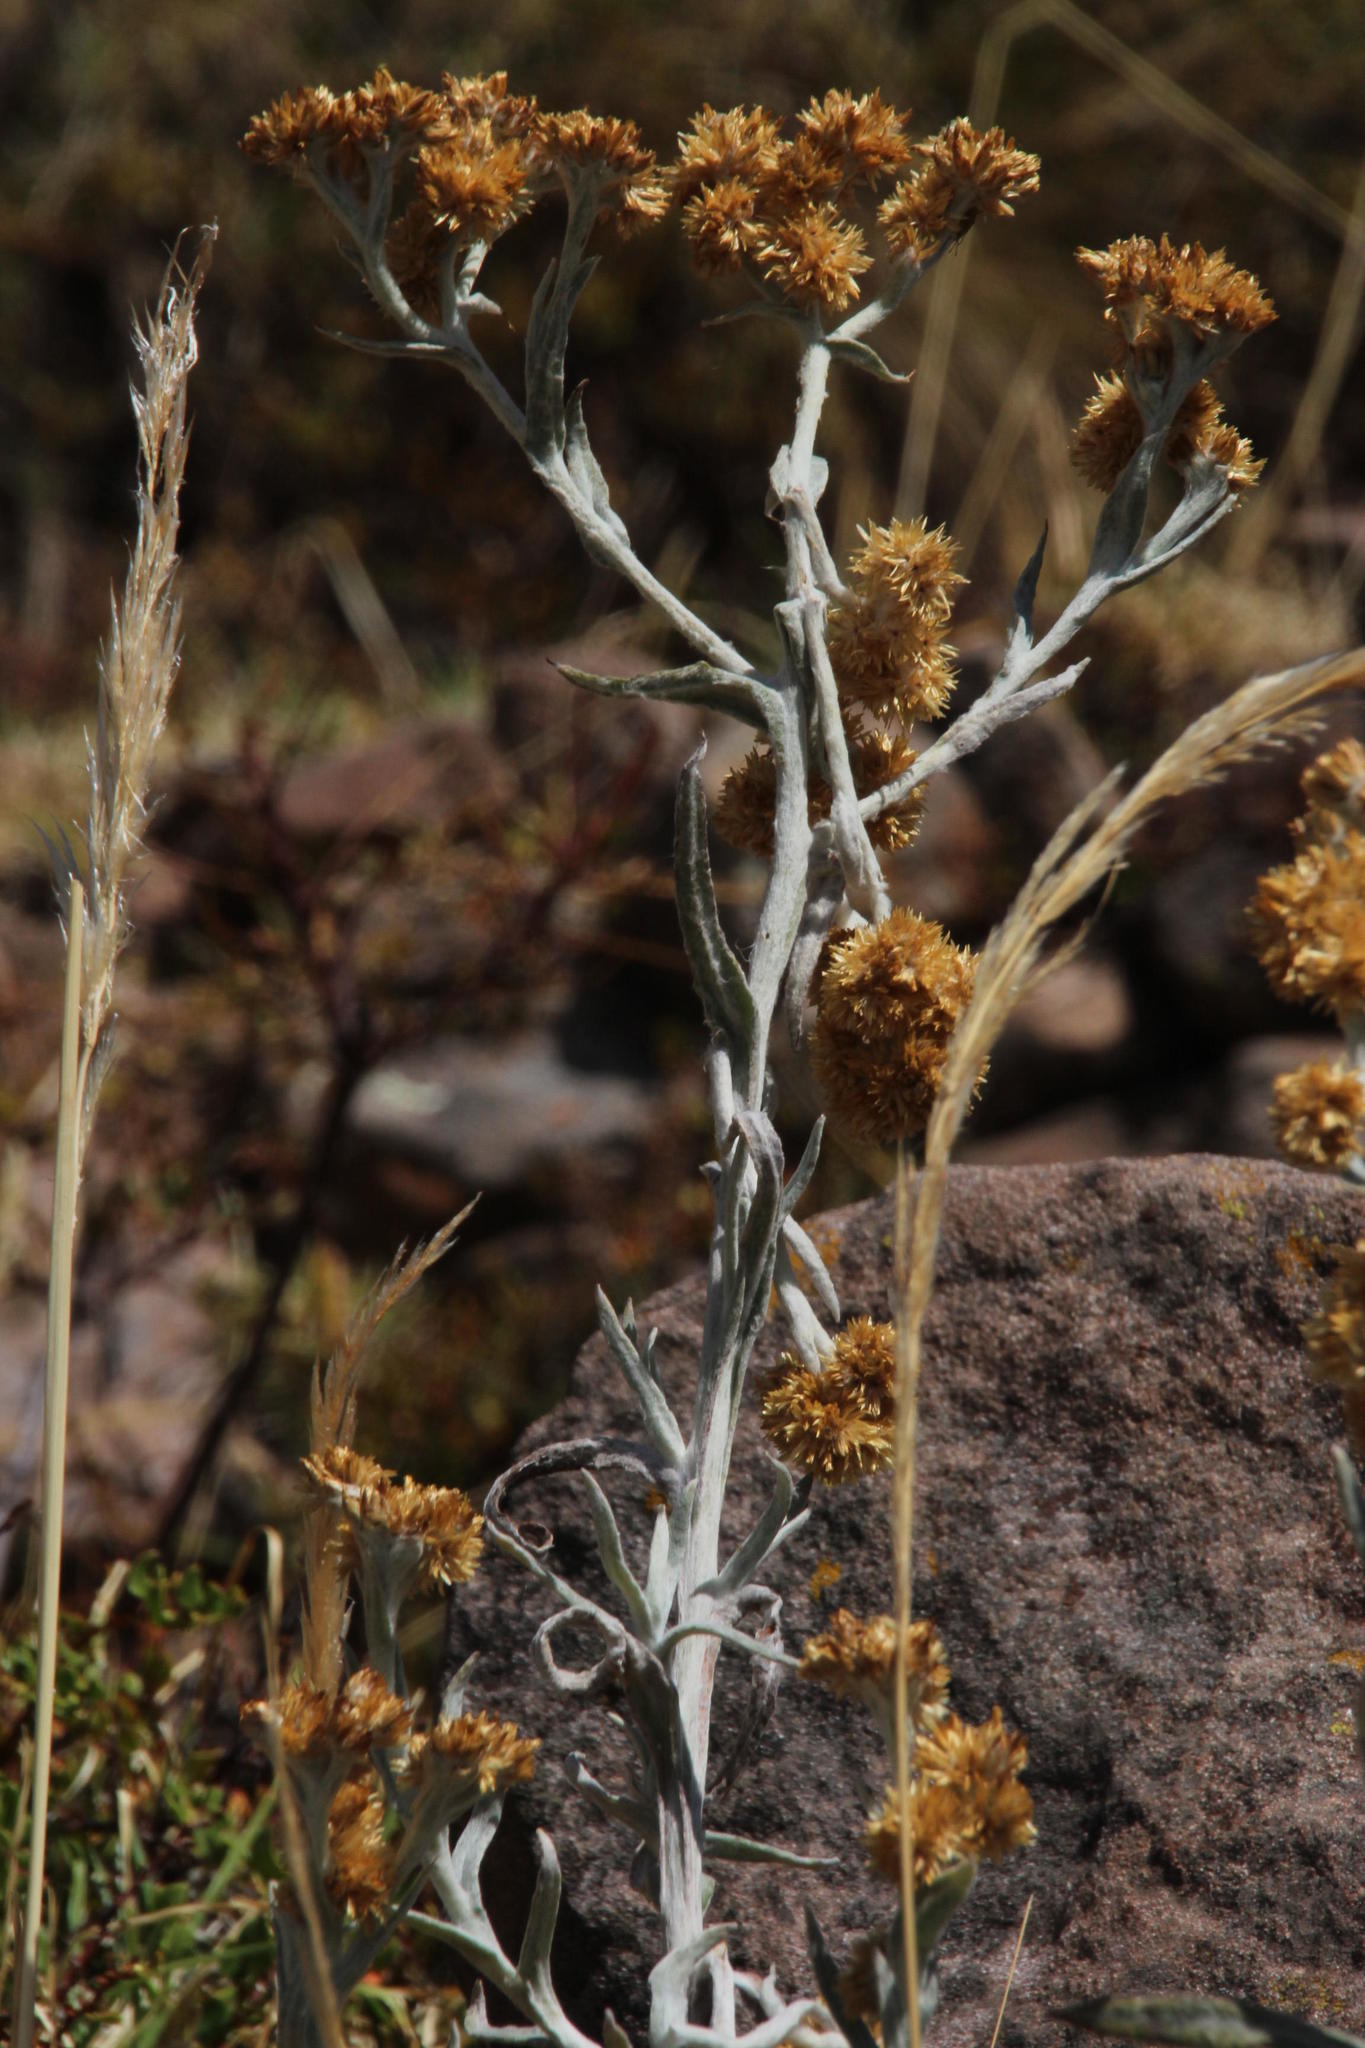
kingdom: Plantae
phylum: Tracheophyta
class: Magnoliopsida
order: Asterales
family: Asteraceae
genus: Achyrocline
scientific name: Achyrocline alata
